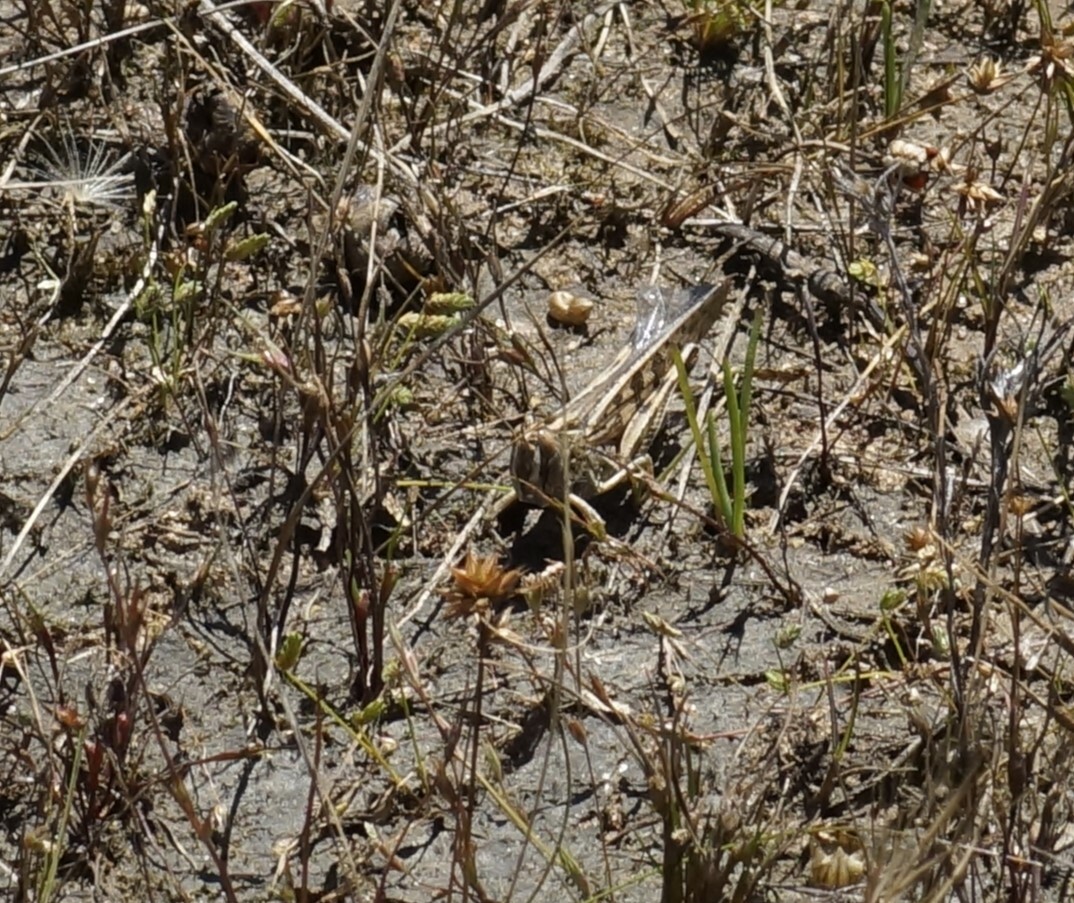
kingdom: Animalia
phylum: Arthropoda
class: Insecta
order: Orthoptera
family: Acrididae
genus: Chortoicetes
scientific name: Chortoicetes terminifera
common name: Australian plague locust
